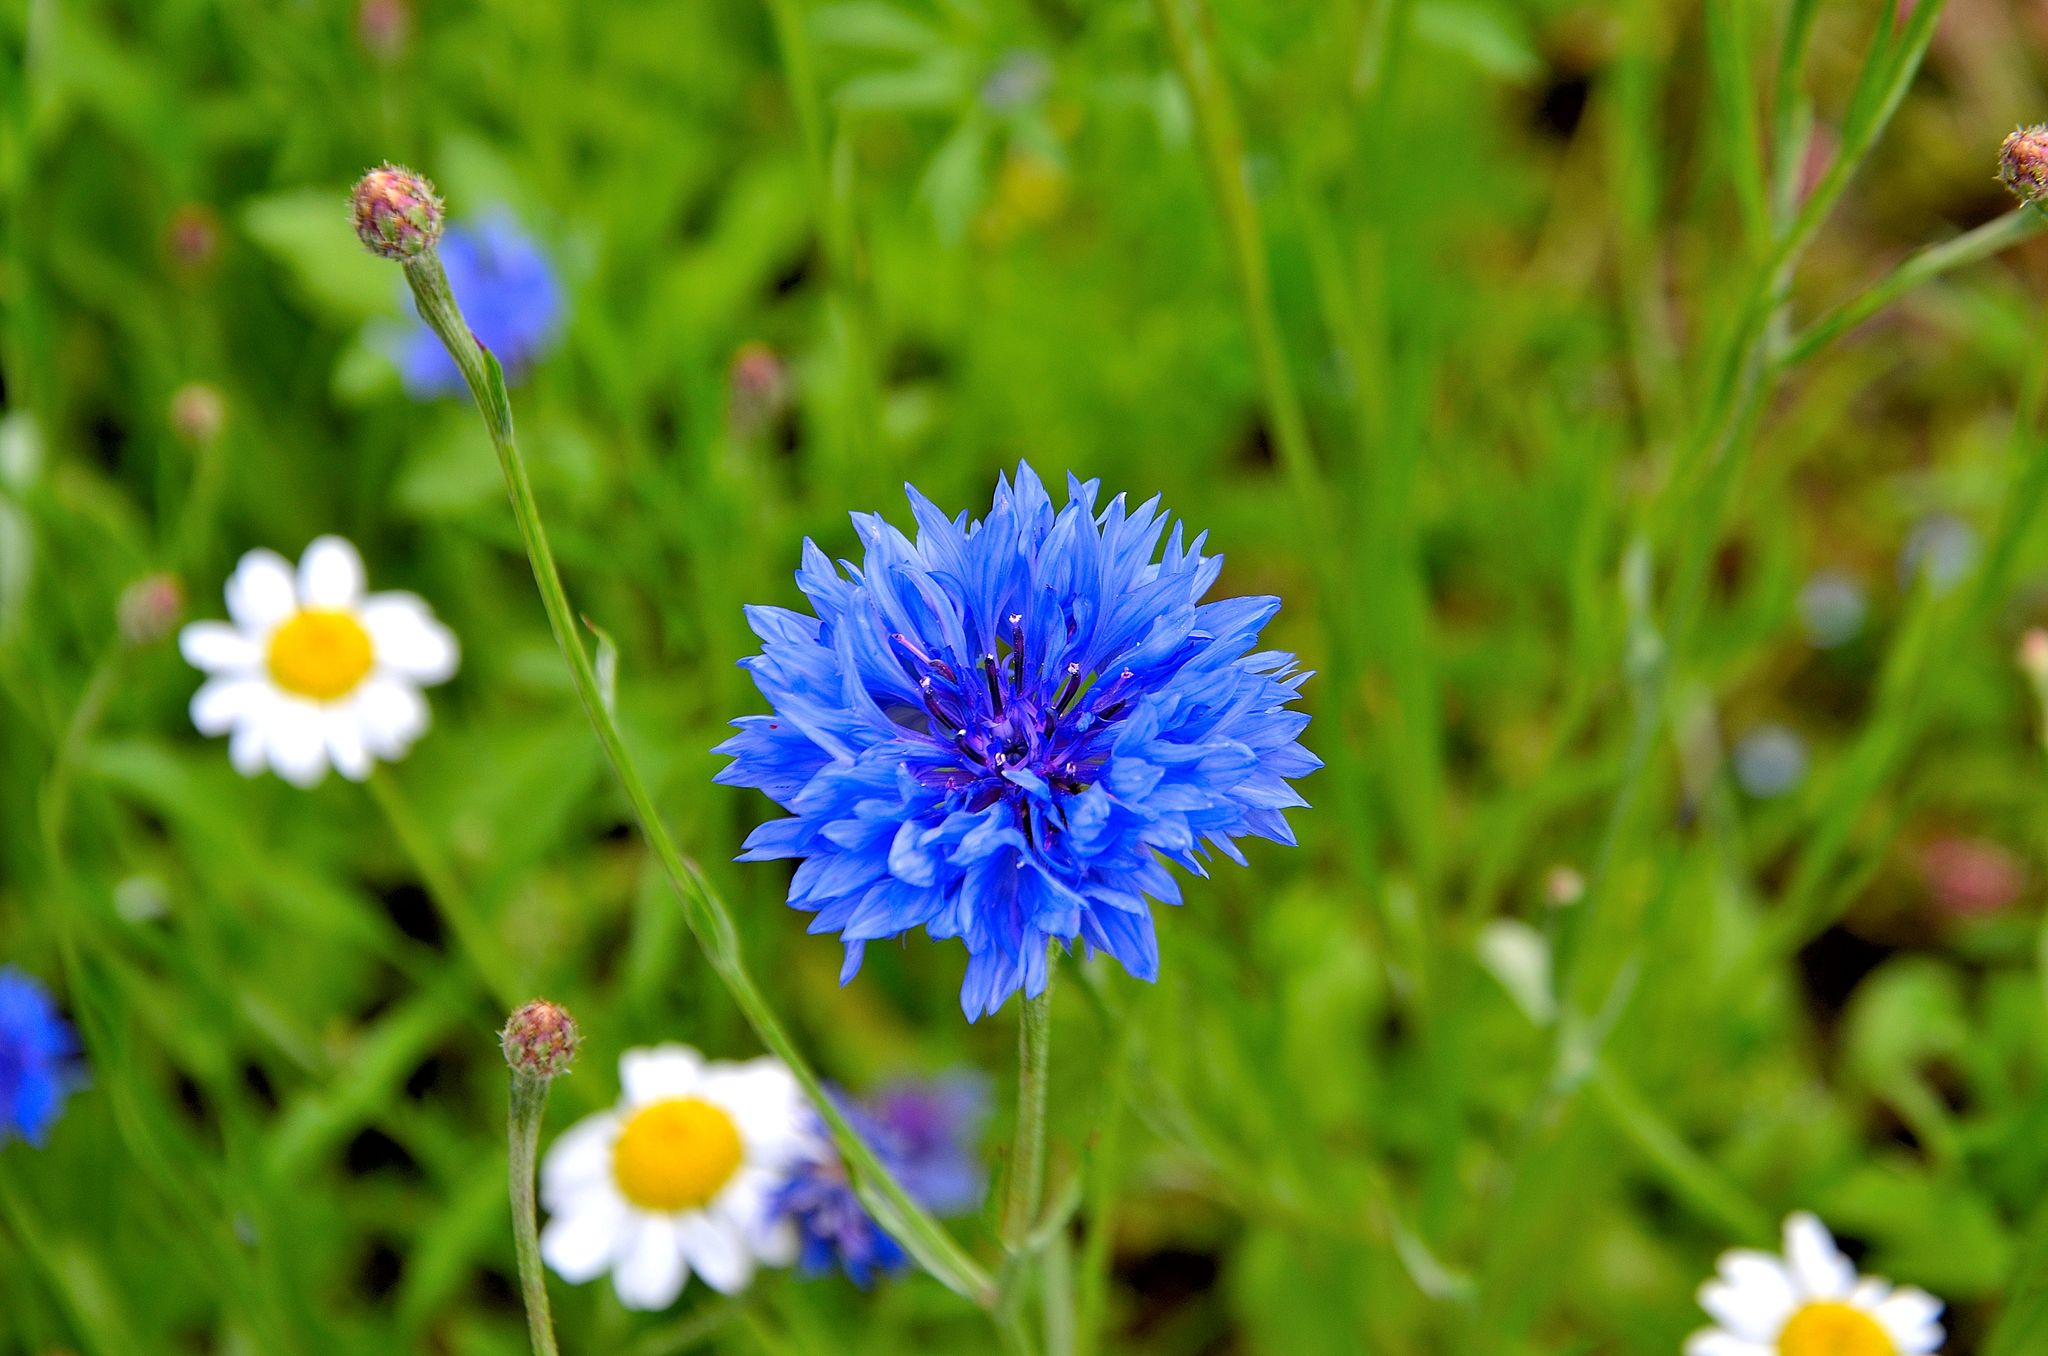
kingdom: Plantae
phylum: Tracheophyta
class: Magnoliopsida
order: Asterales
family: Asteraceae
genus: Centaurea
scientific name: Centaurea cyanus
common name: Cornflower
